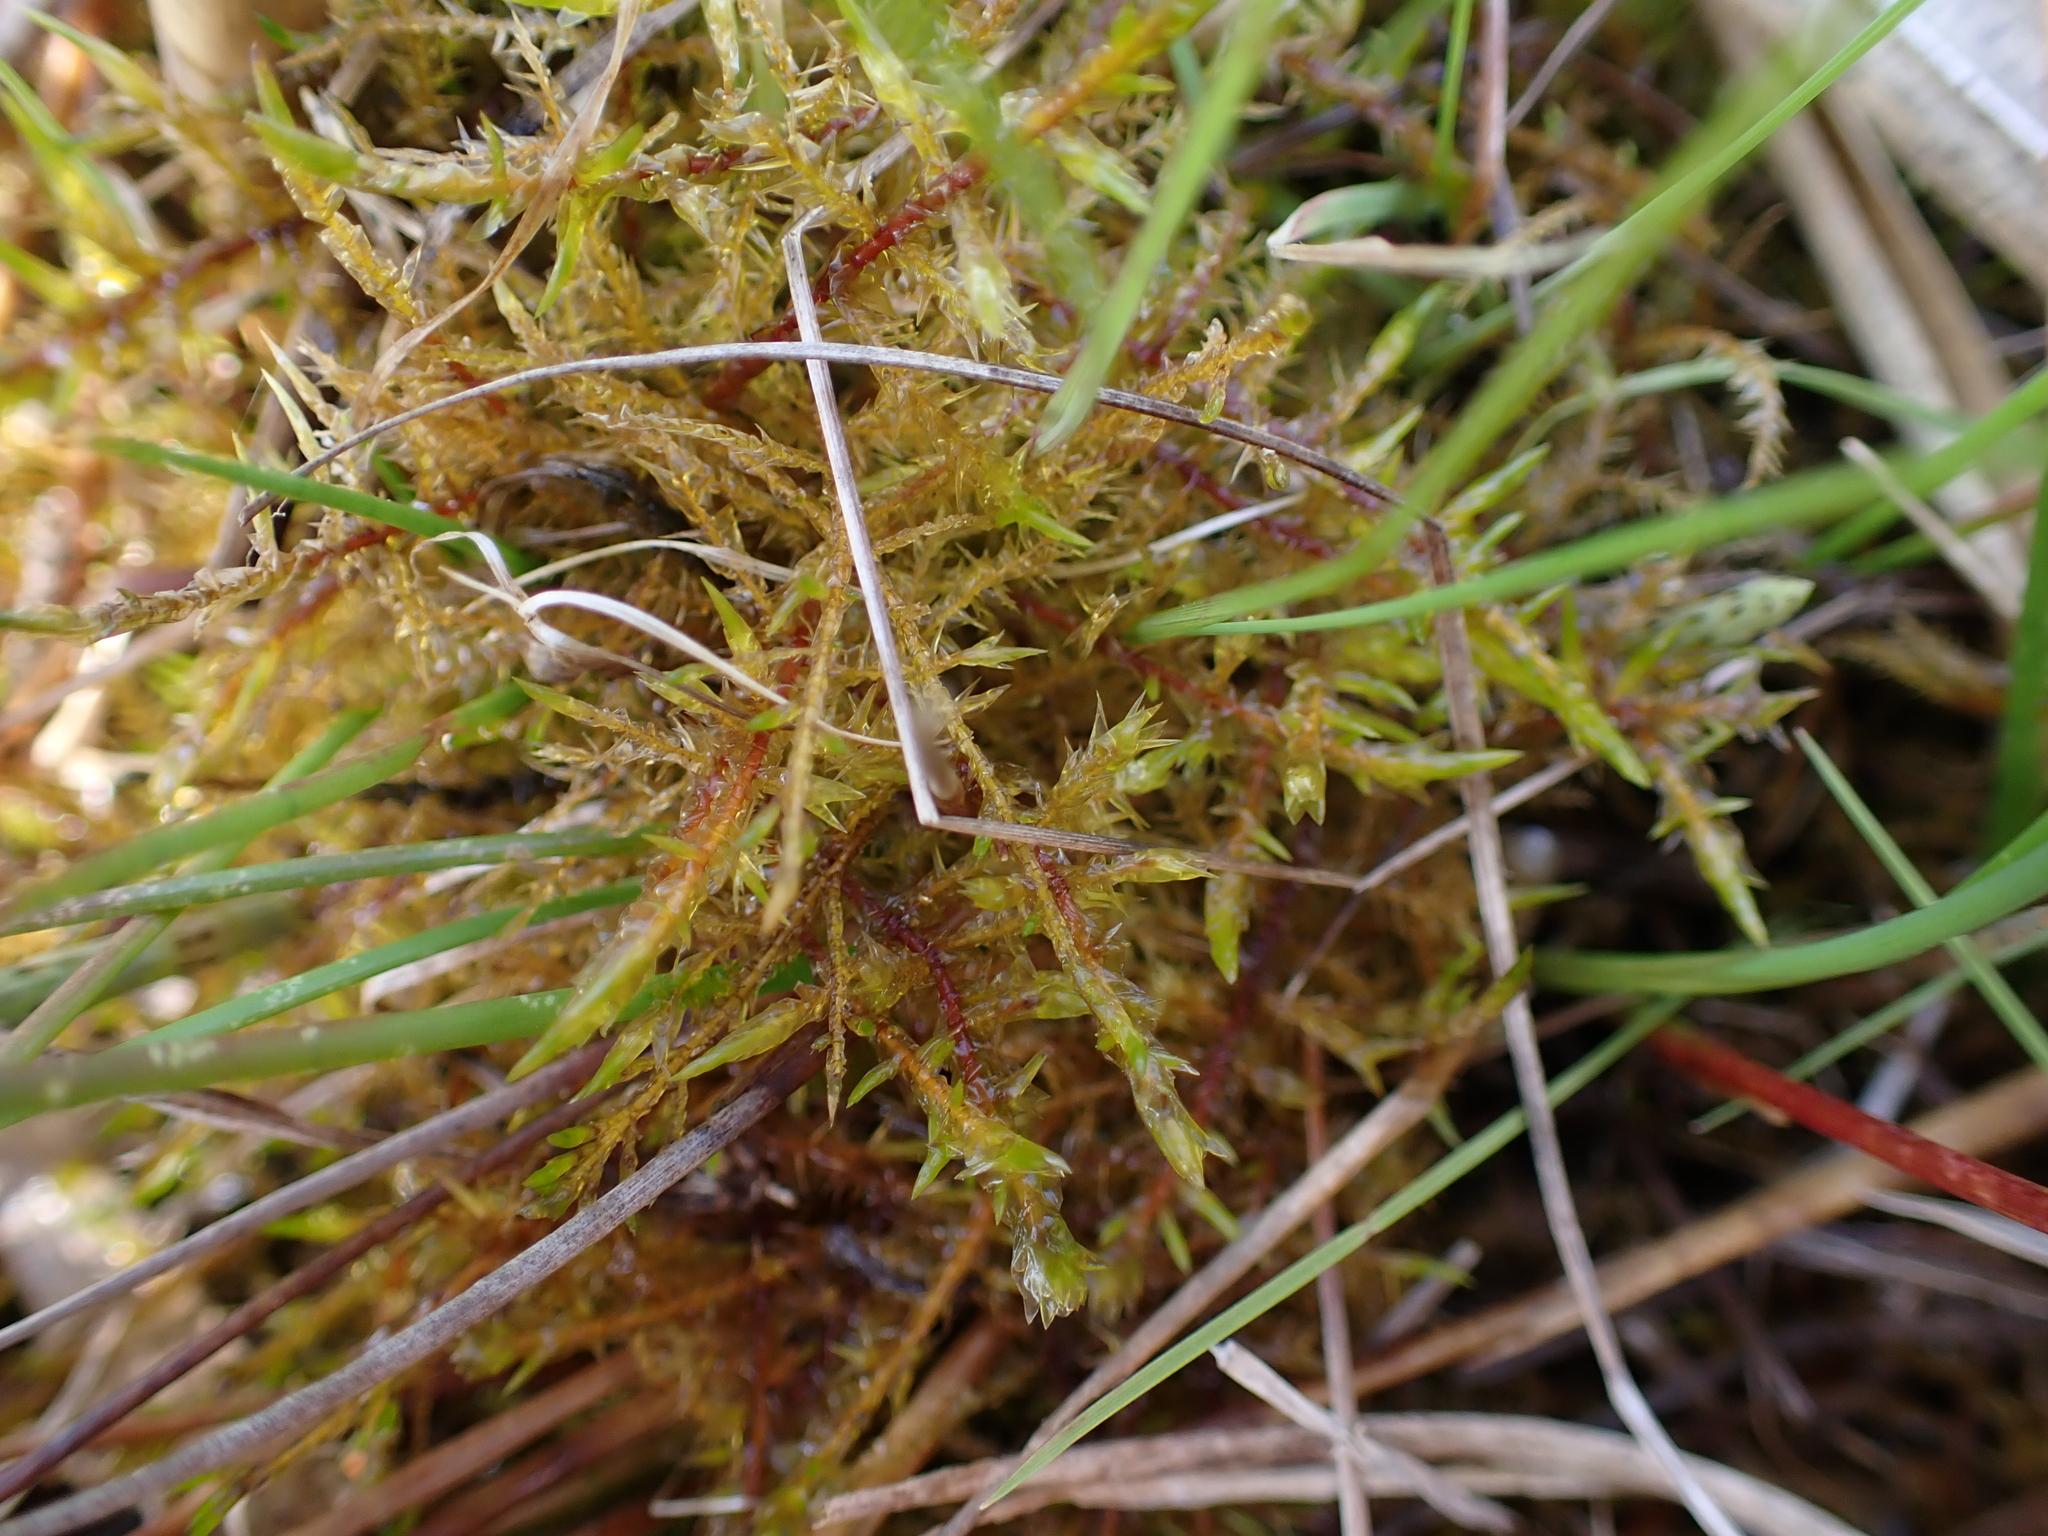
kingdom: Plantae
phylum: Bryophyta
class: Bryopsida
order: Hypnales
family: Pylaisiaceae
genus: Calliergonella
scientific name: Calliergonella cuspidata
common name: Common large wetland moss
